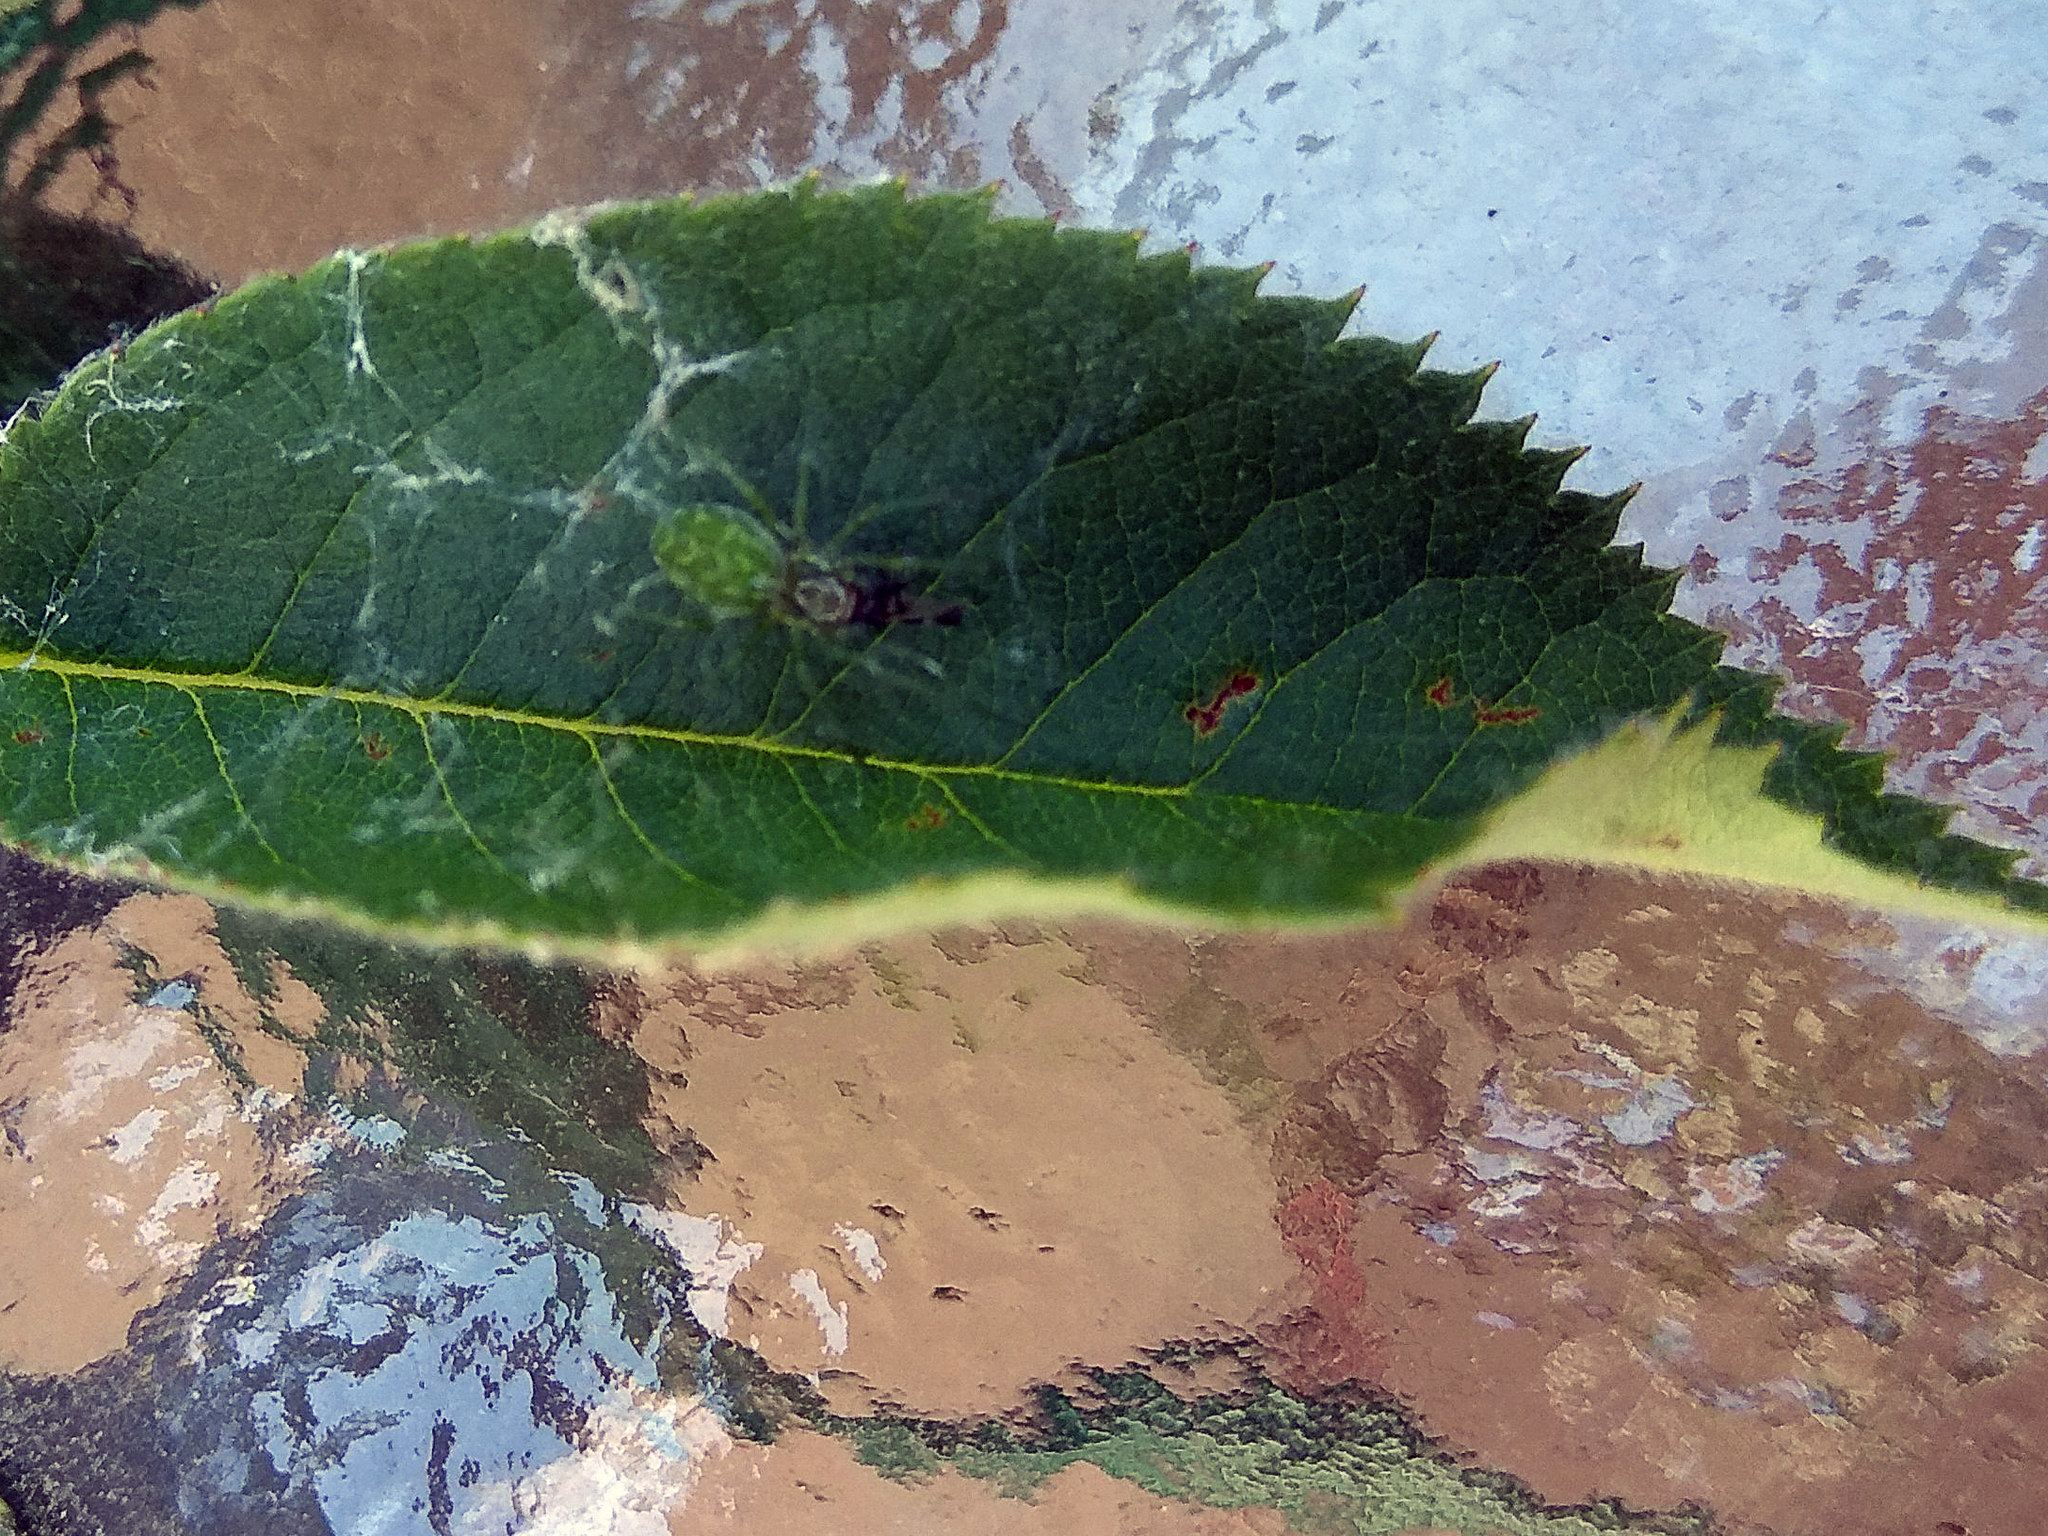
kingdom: Animalia
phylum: Arthropoda
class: Arachnida
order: Araneae
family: Dictynidae
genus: Nigma
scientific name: Nigma walckenaeri
